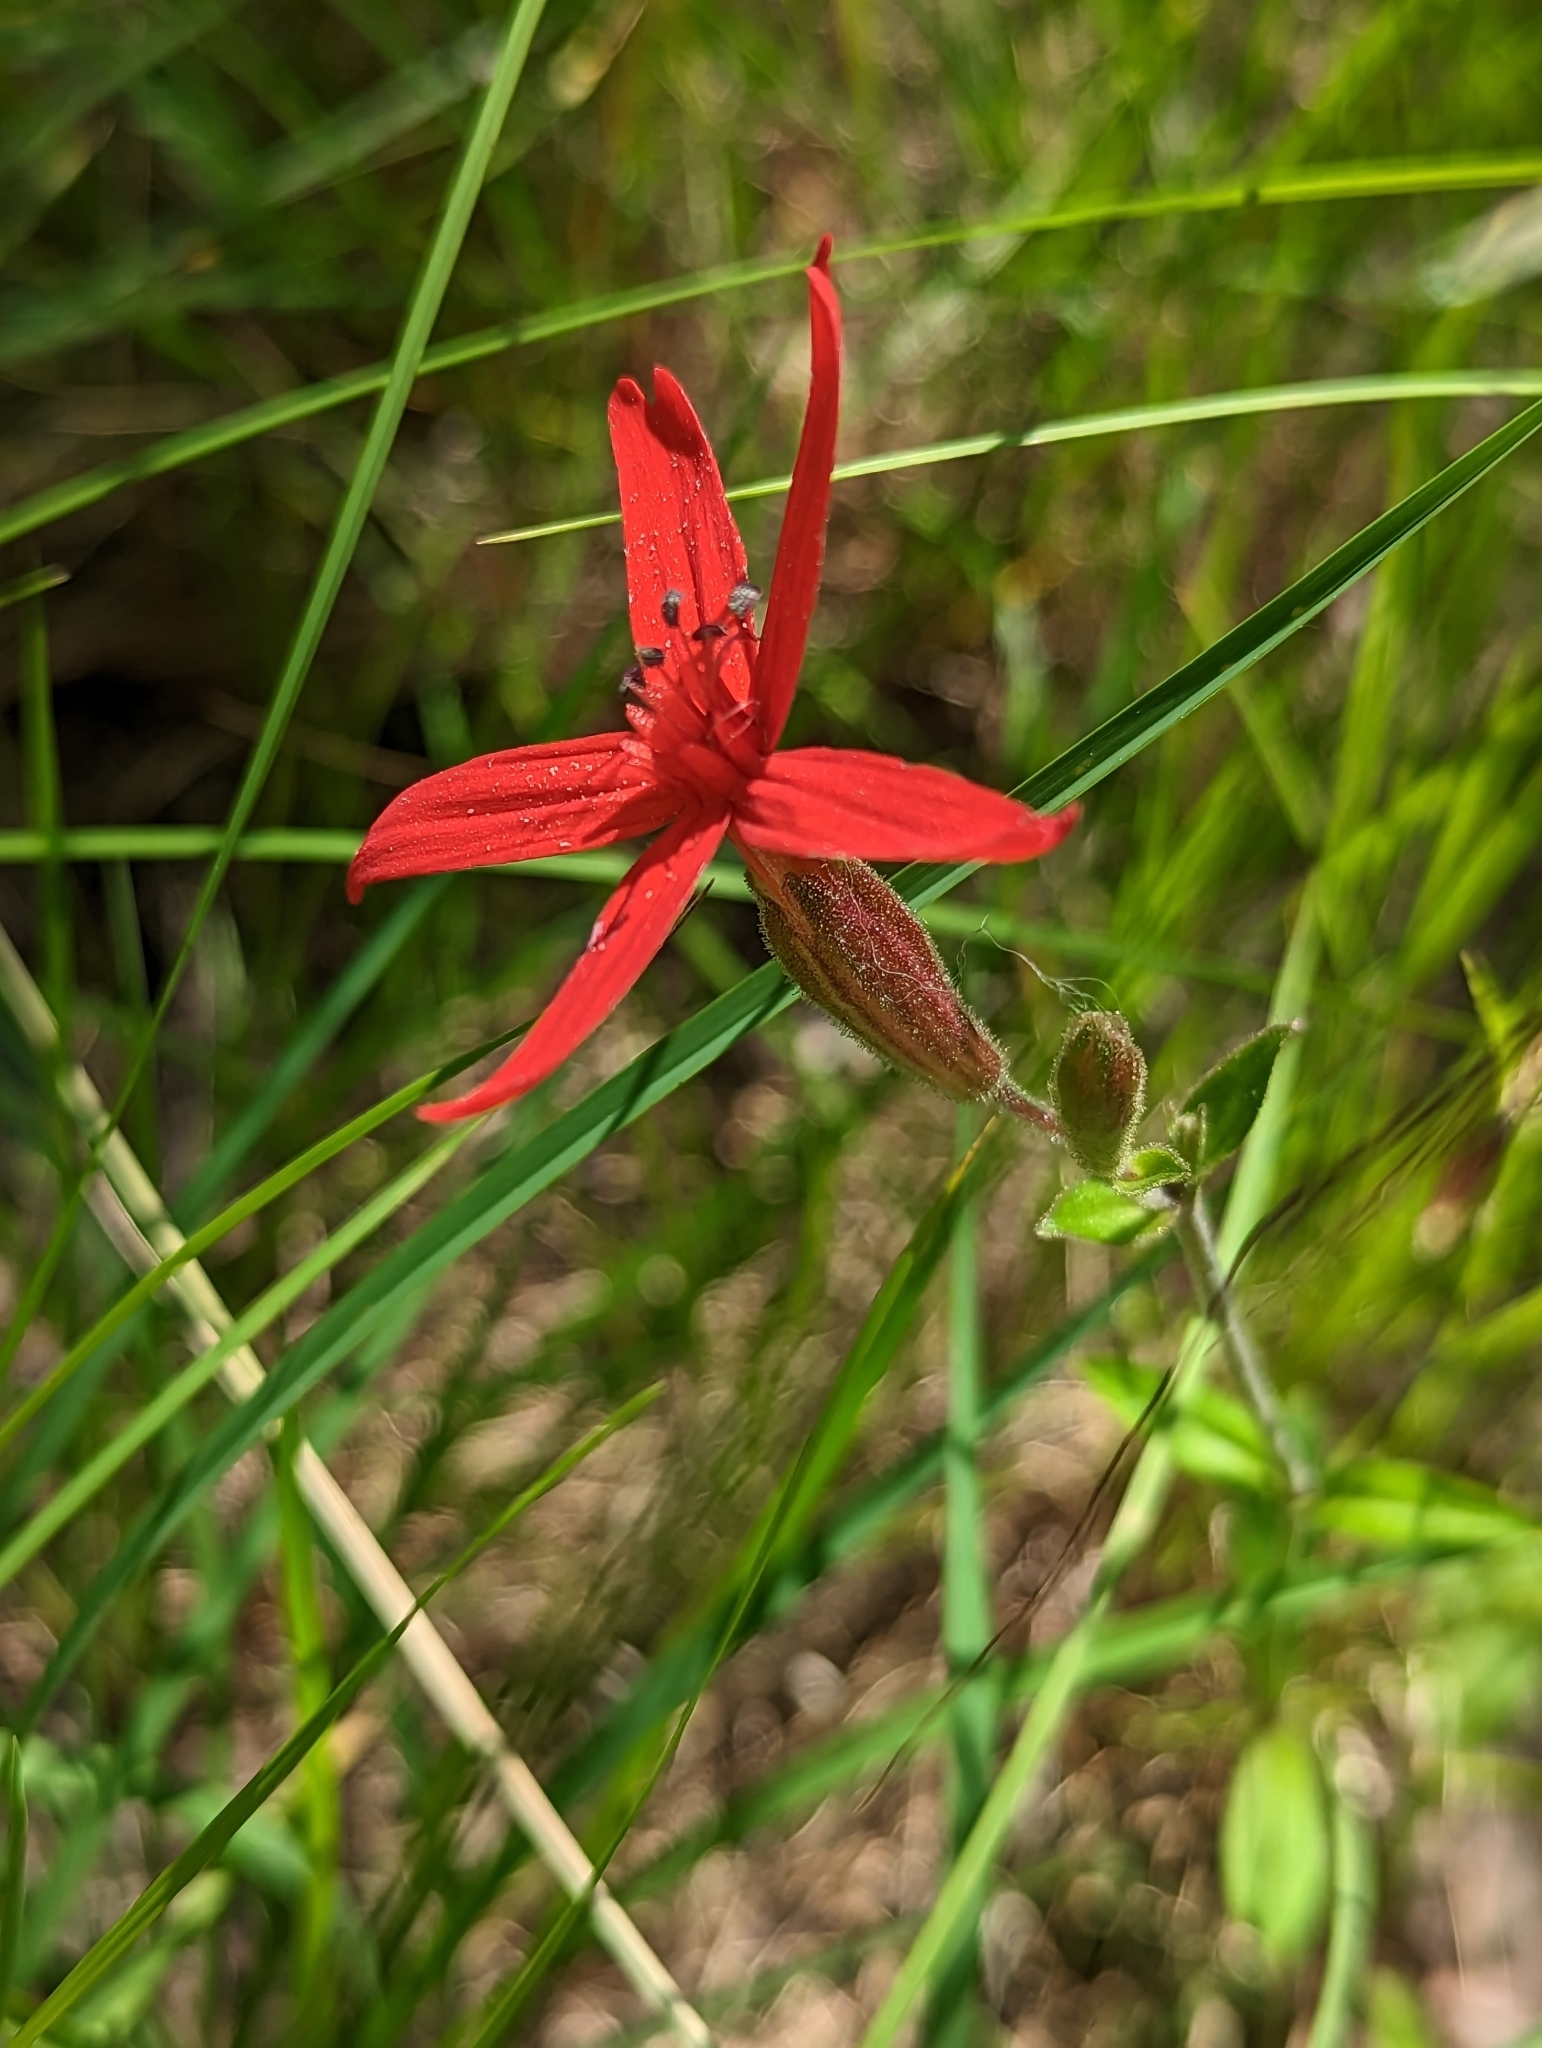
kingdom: Plantae
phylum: Tracheophyta
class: Magnoliopsida
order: Caryophyllales
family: Caryophyllaceae
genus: Silene
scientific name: Silene virginica
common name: Fire-pink
